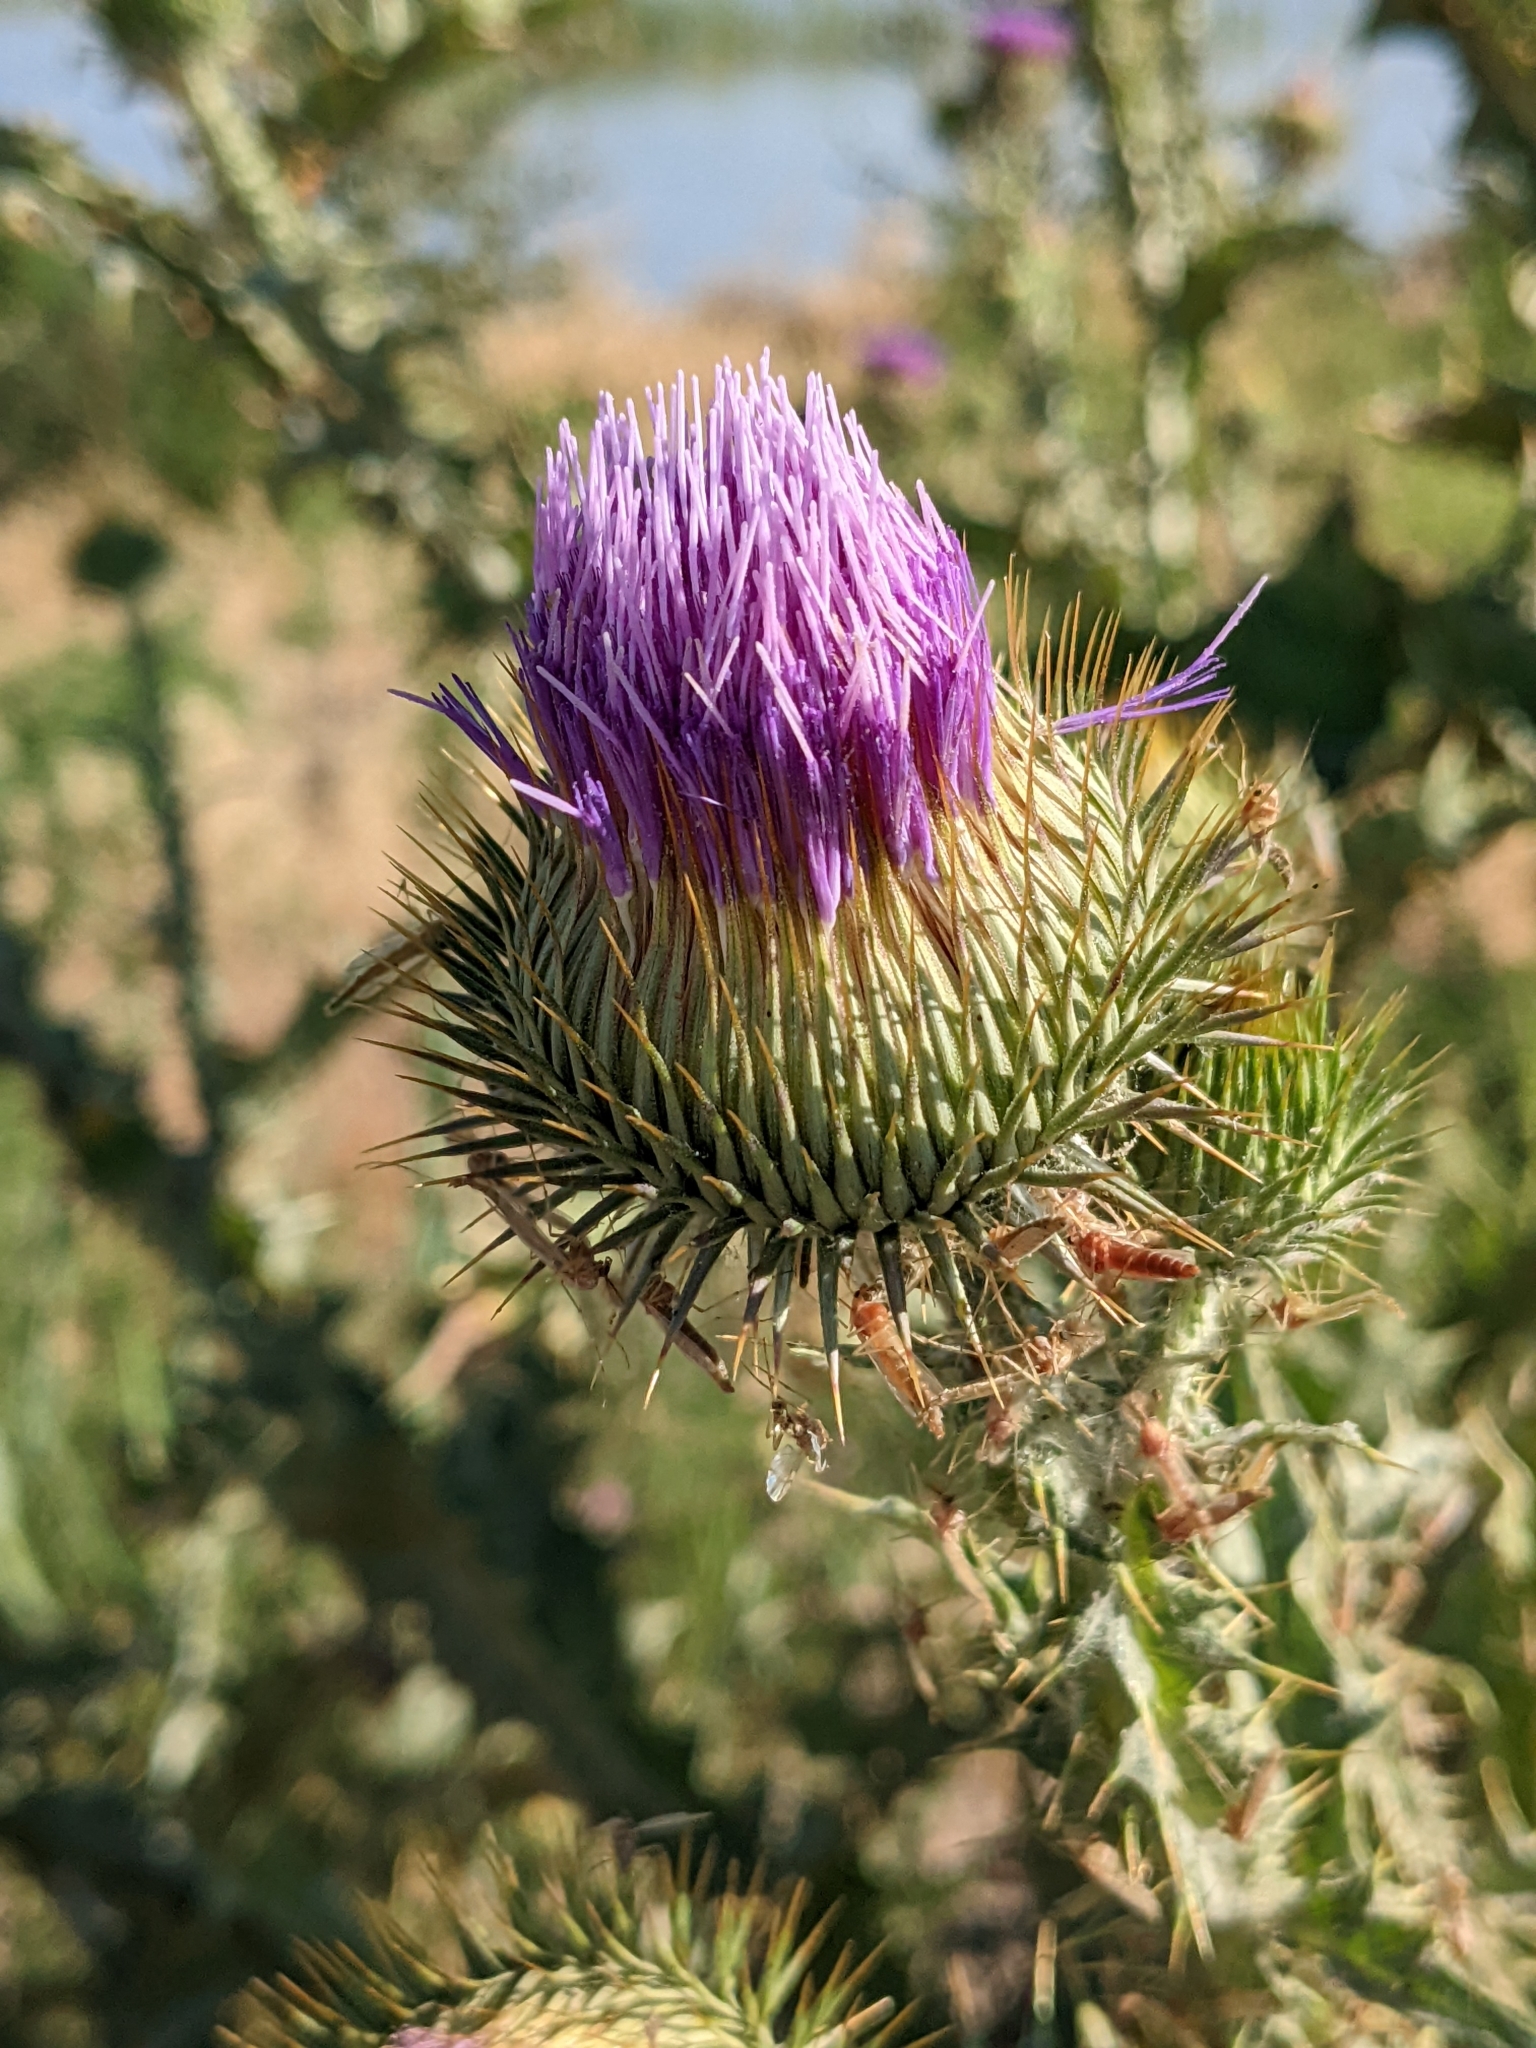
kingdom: Plantae
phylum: Tracheophyta
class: Magnoliopsida
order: Asterales
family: Asteraceae
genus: Onopordum
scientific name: Onopordum acanthium
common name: Scotch thistle
